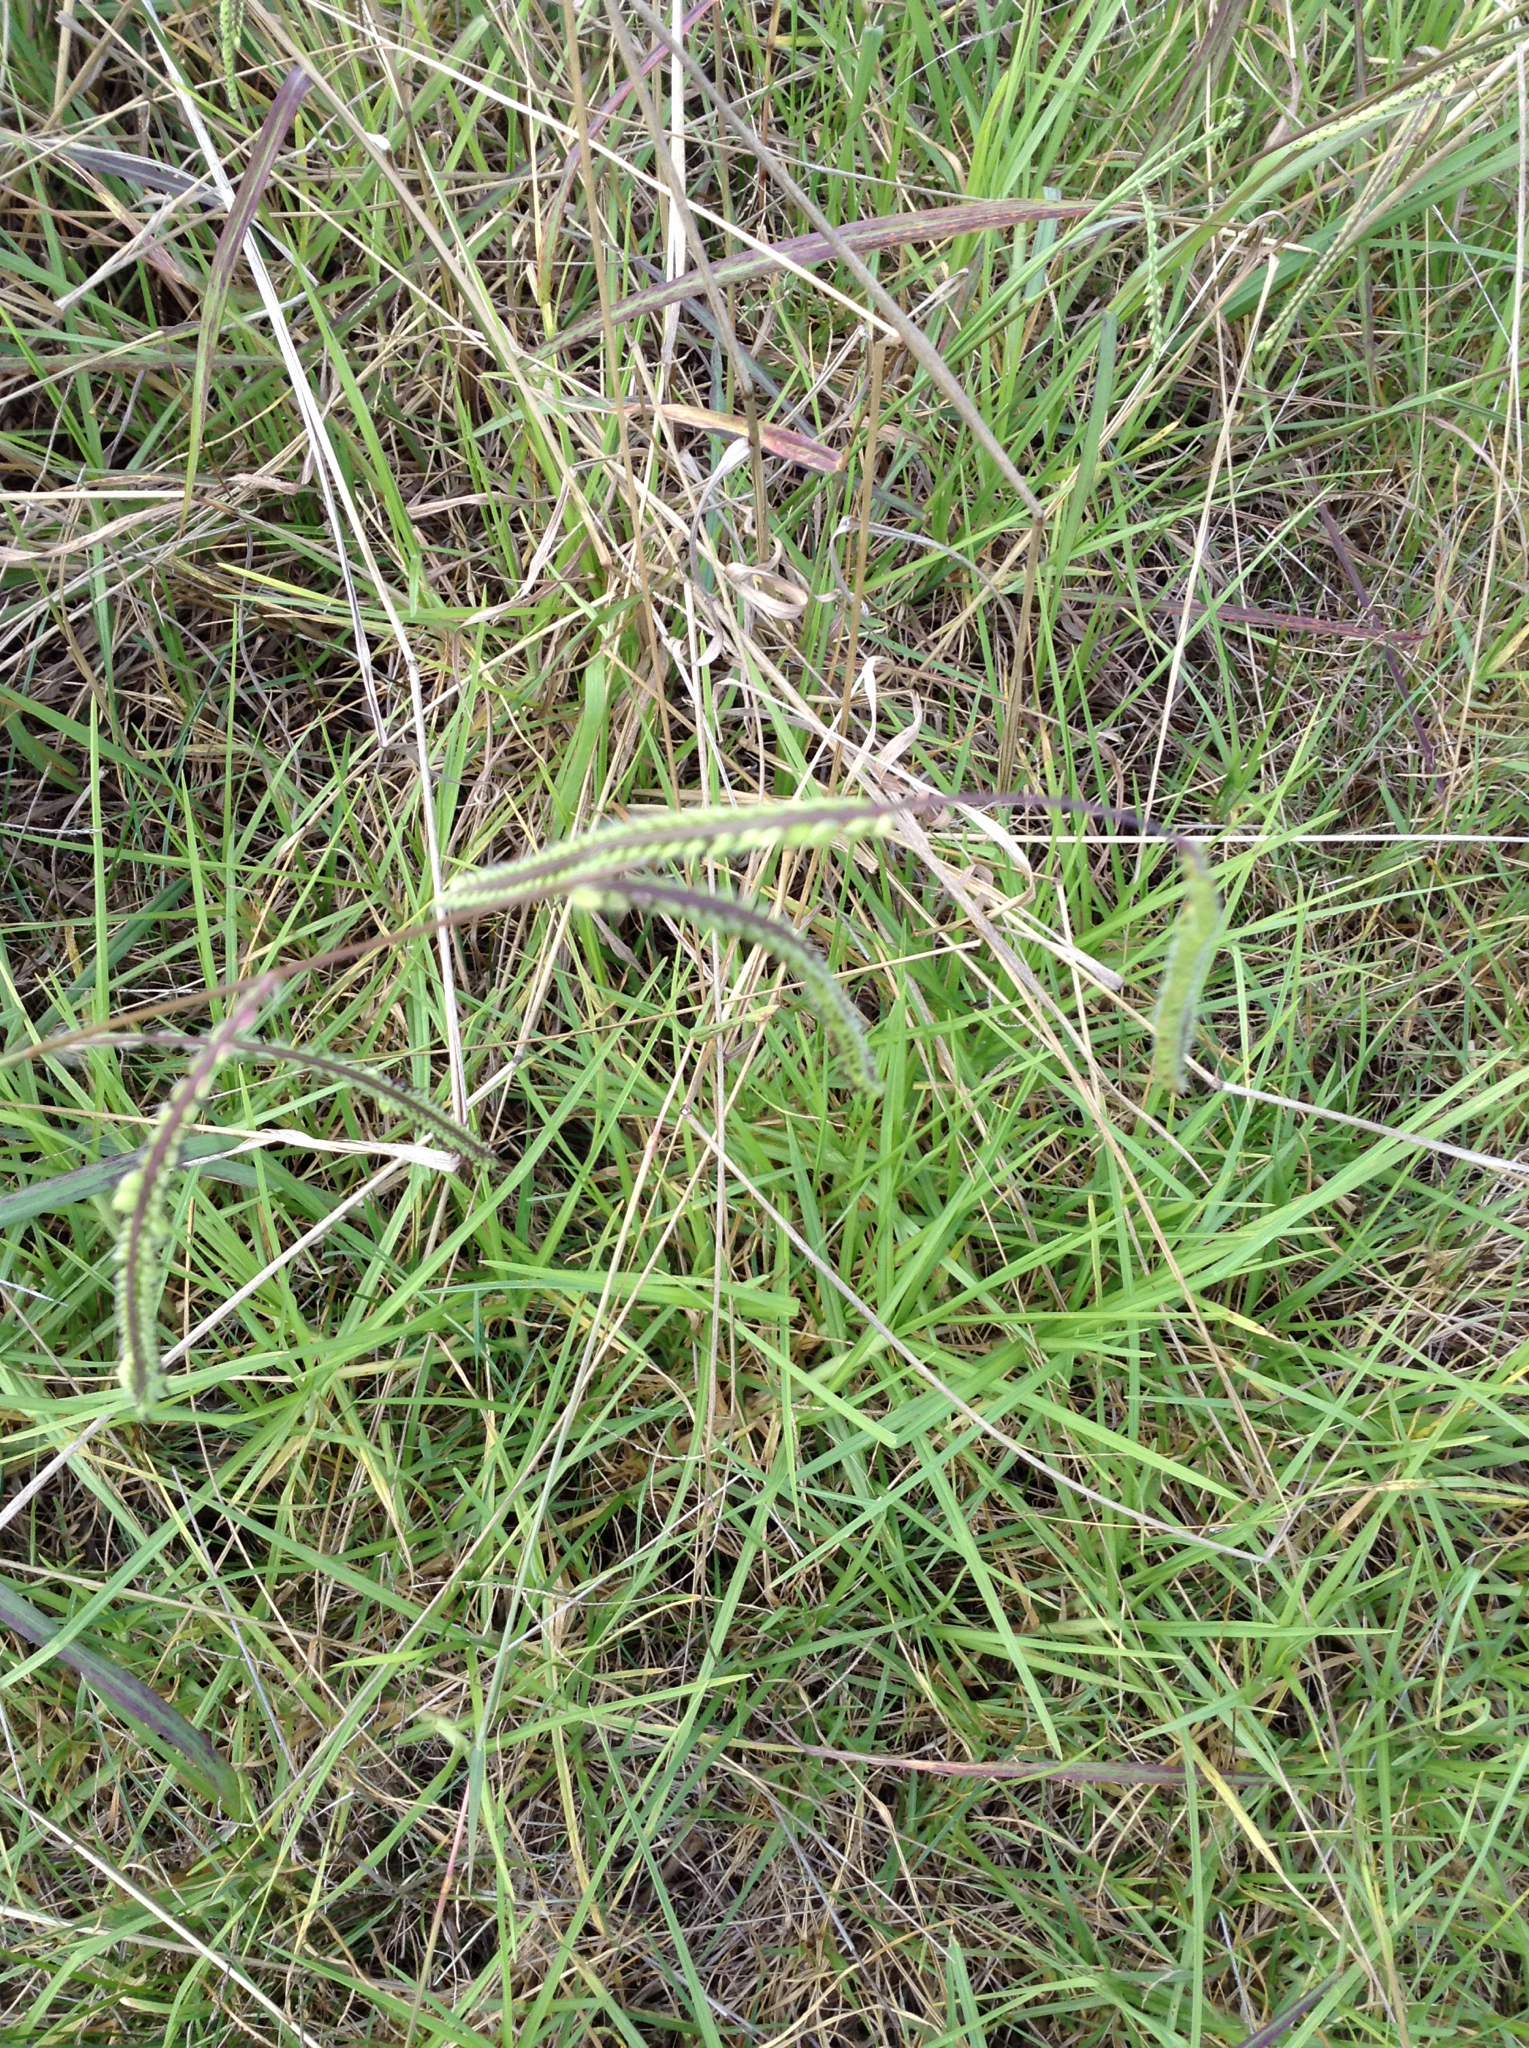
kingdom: Plantae
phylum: Tracheophyta
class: Liliopsida
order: Poales
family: Poaceae
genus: Paspalum
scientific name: Paspalum dilatatum
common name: Dallisgrass
